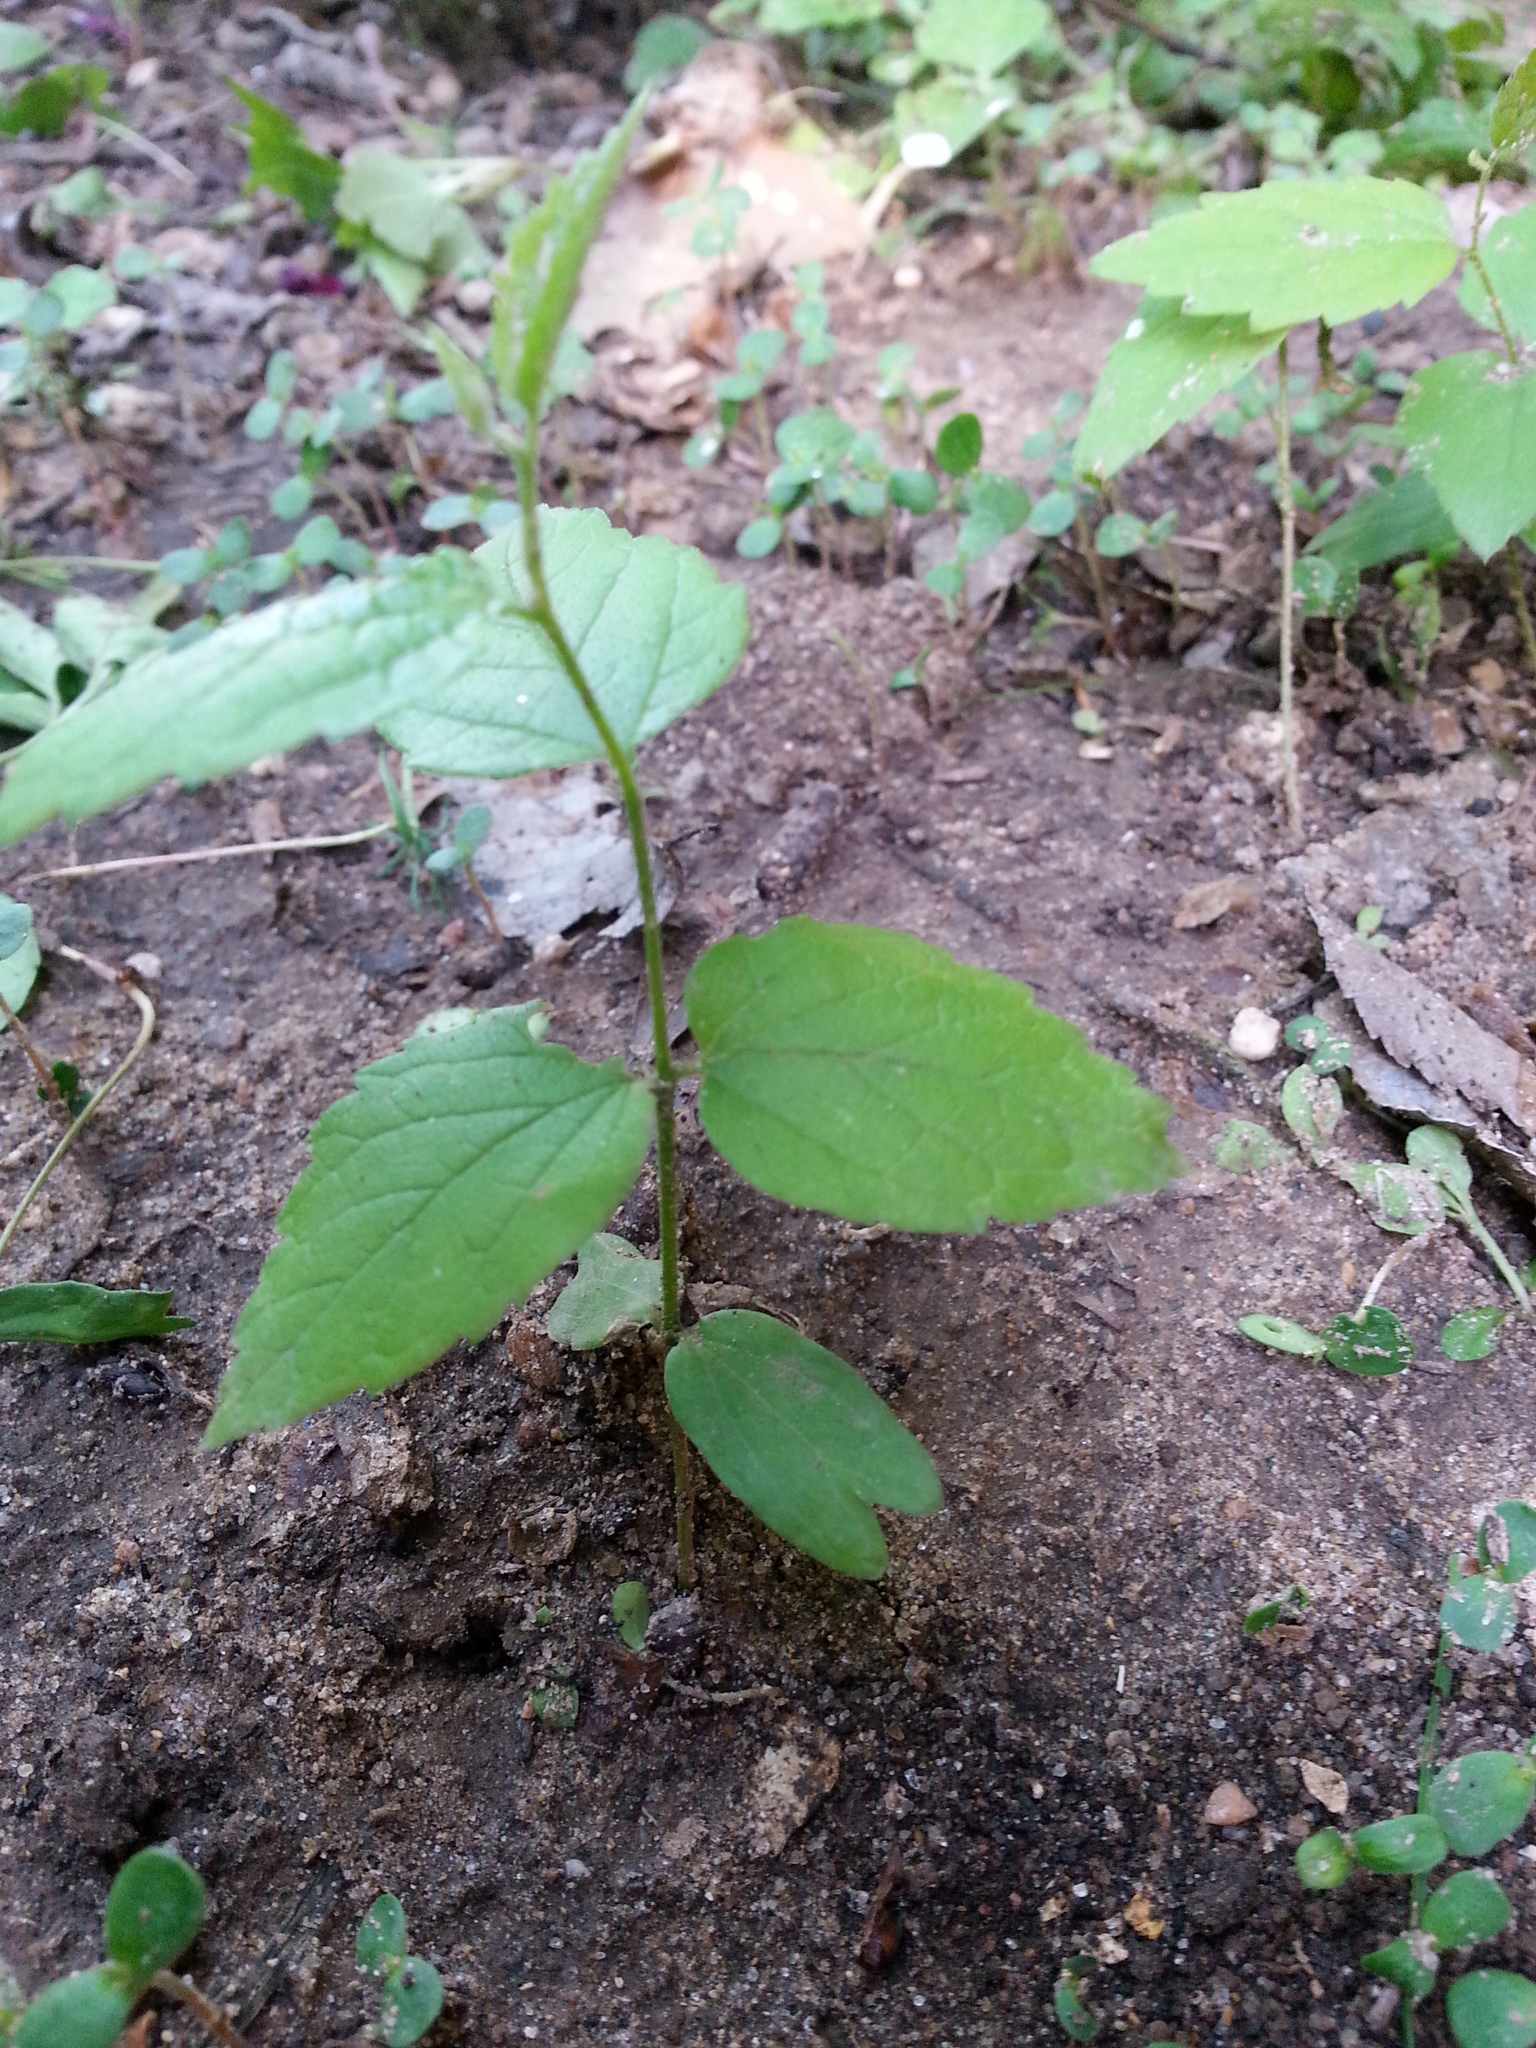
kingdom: Plantae
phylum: Tracheophyta
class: Magnoliopsida
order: Rosales
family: Cannabaceae
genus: Celtis
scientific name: Celtis laevigata
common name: Sugarberry
